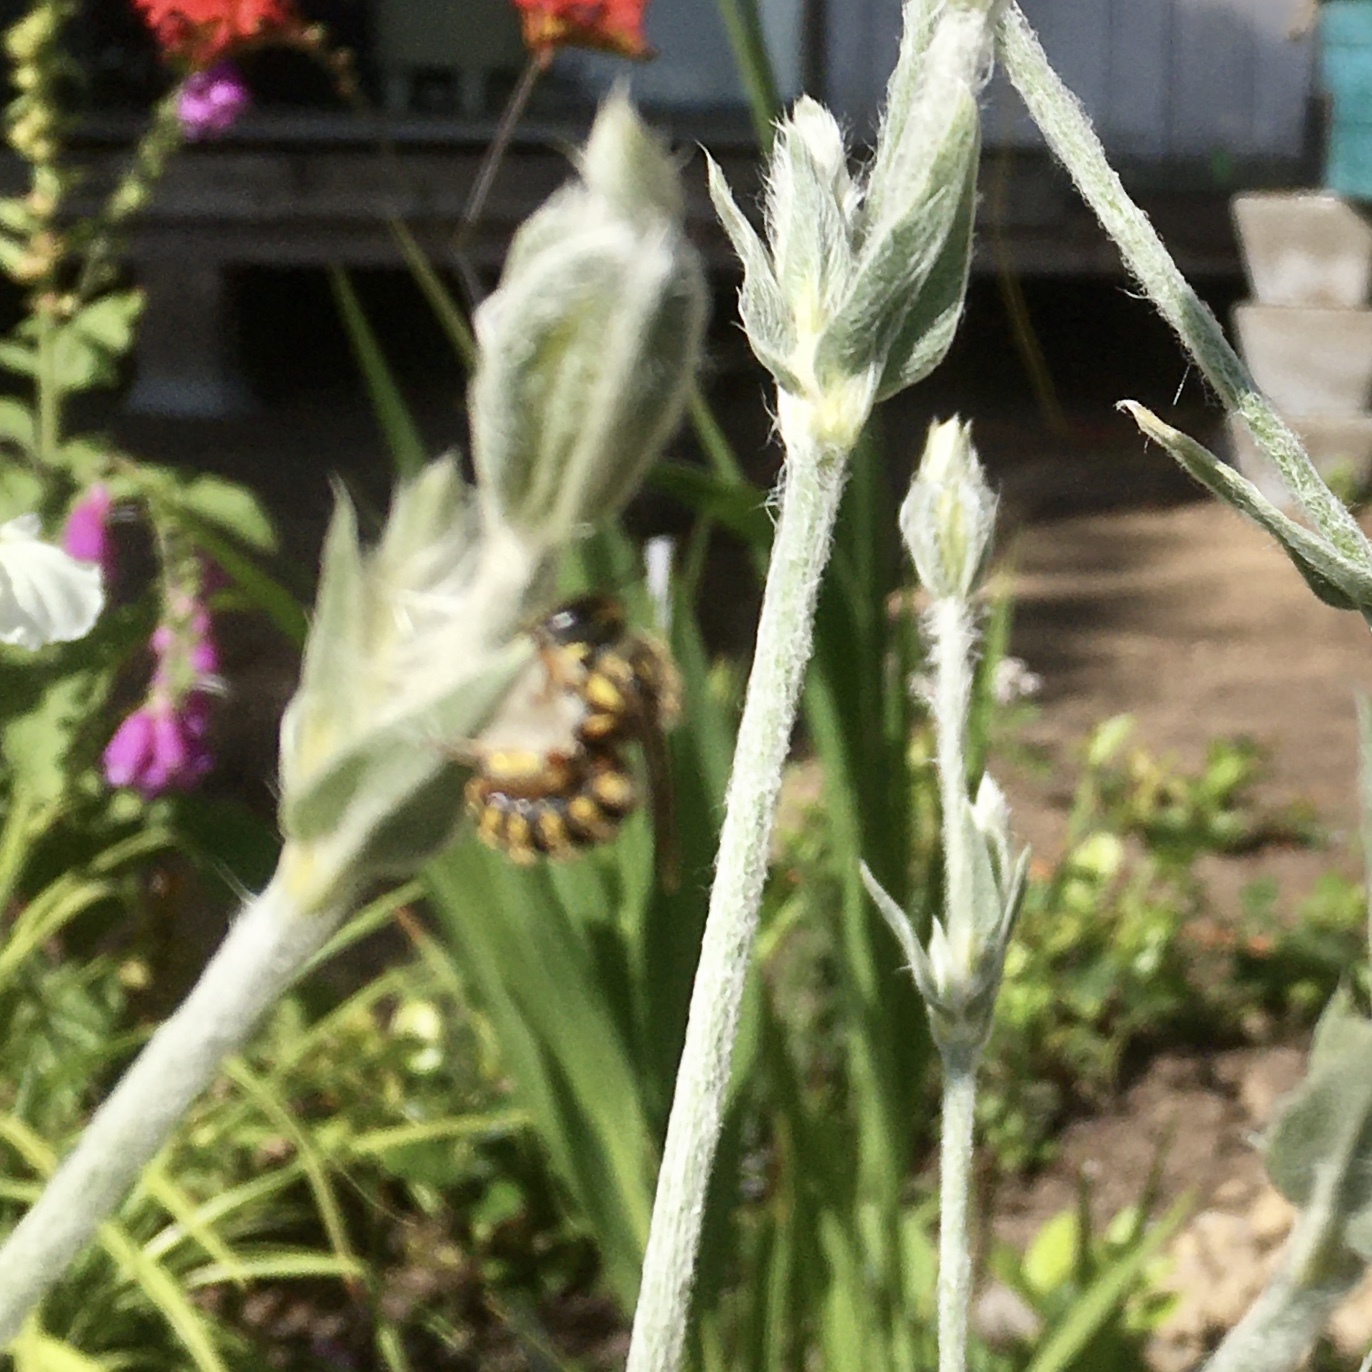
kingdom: Animalia
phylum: Arthropoda
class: Insecta
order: Hymenoptera
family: Megachilidae
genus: Anthidium
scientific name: Anthidium manicatum
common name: Wool carder bee
